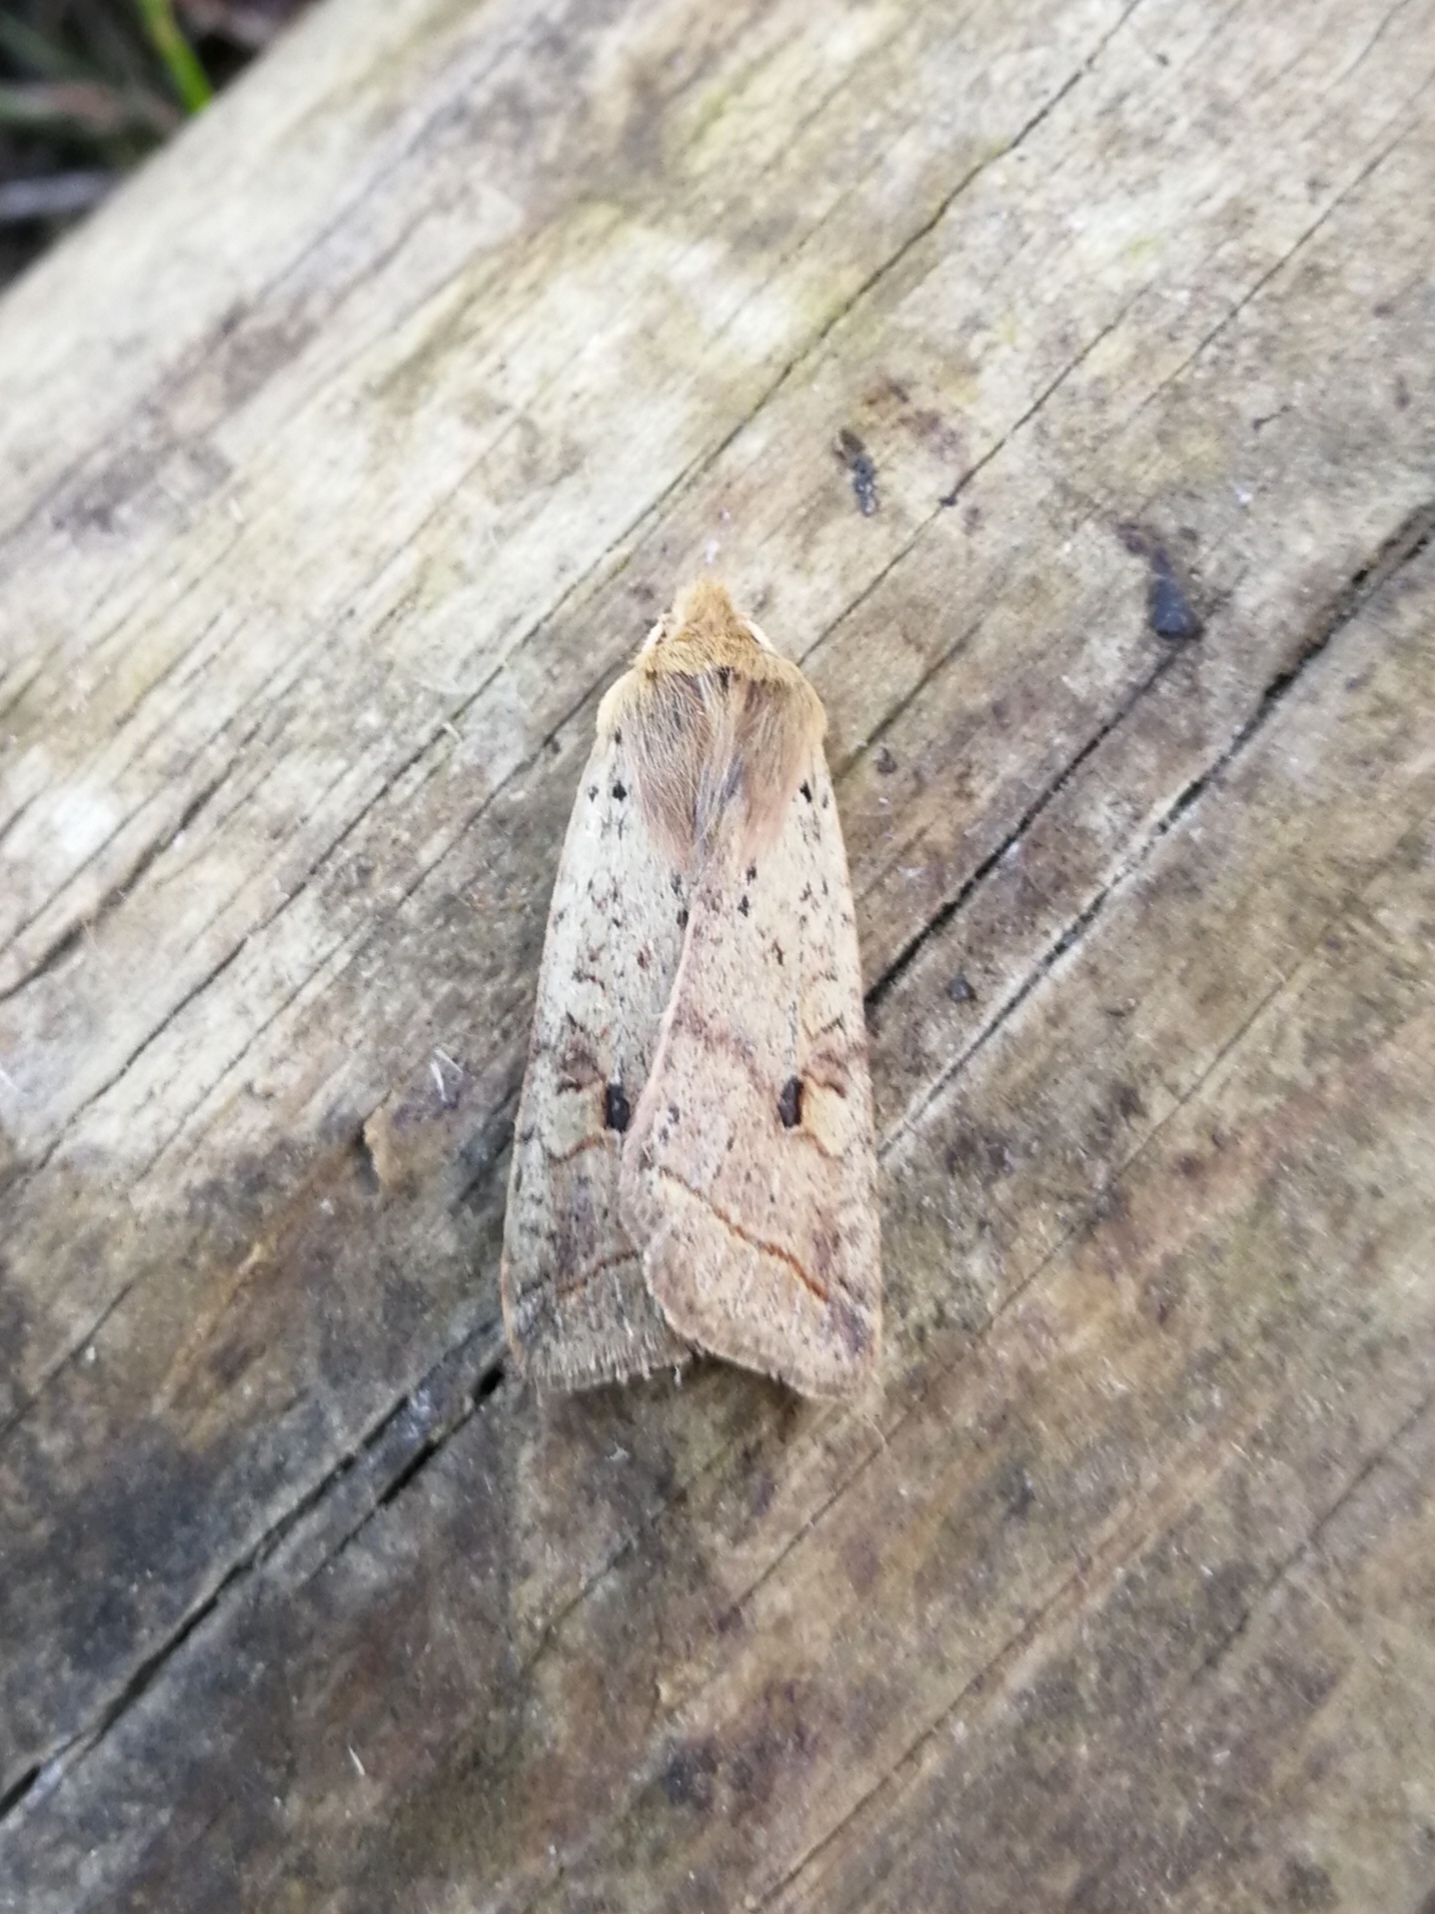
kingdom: Animalia
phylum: Arthropoda
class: Insecta
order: Lepidoptera
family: Noctuidae
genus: Agrochola
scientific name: Agrochola blidaensis
